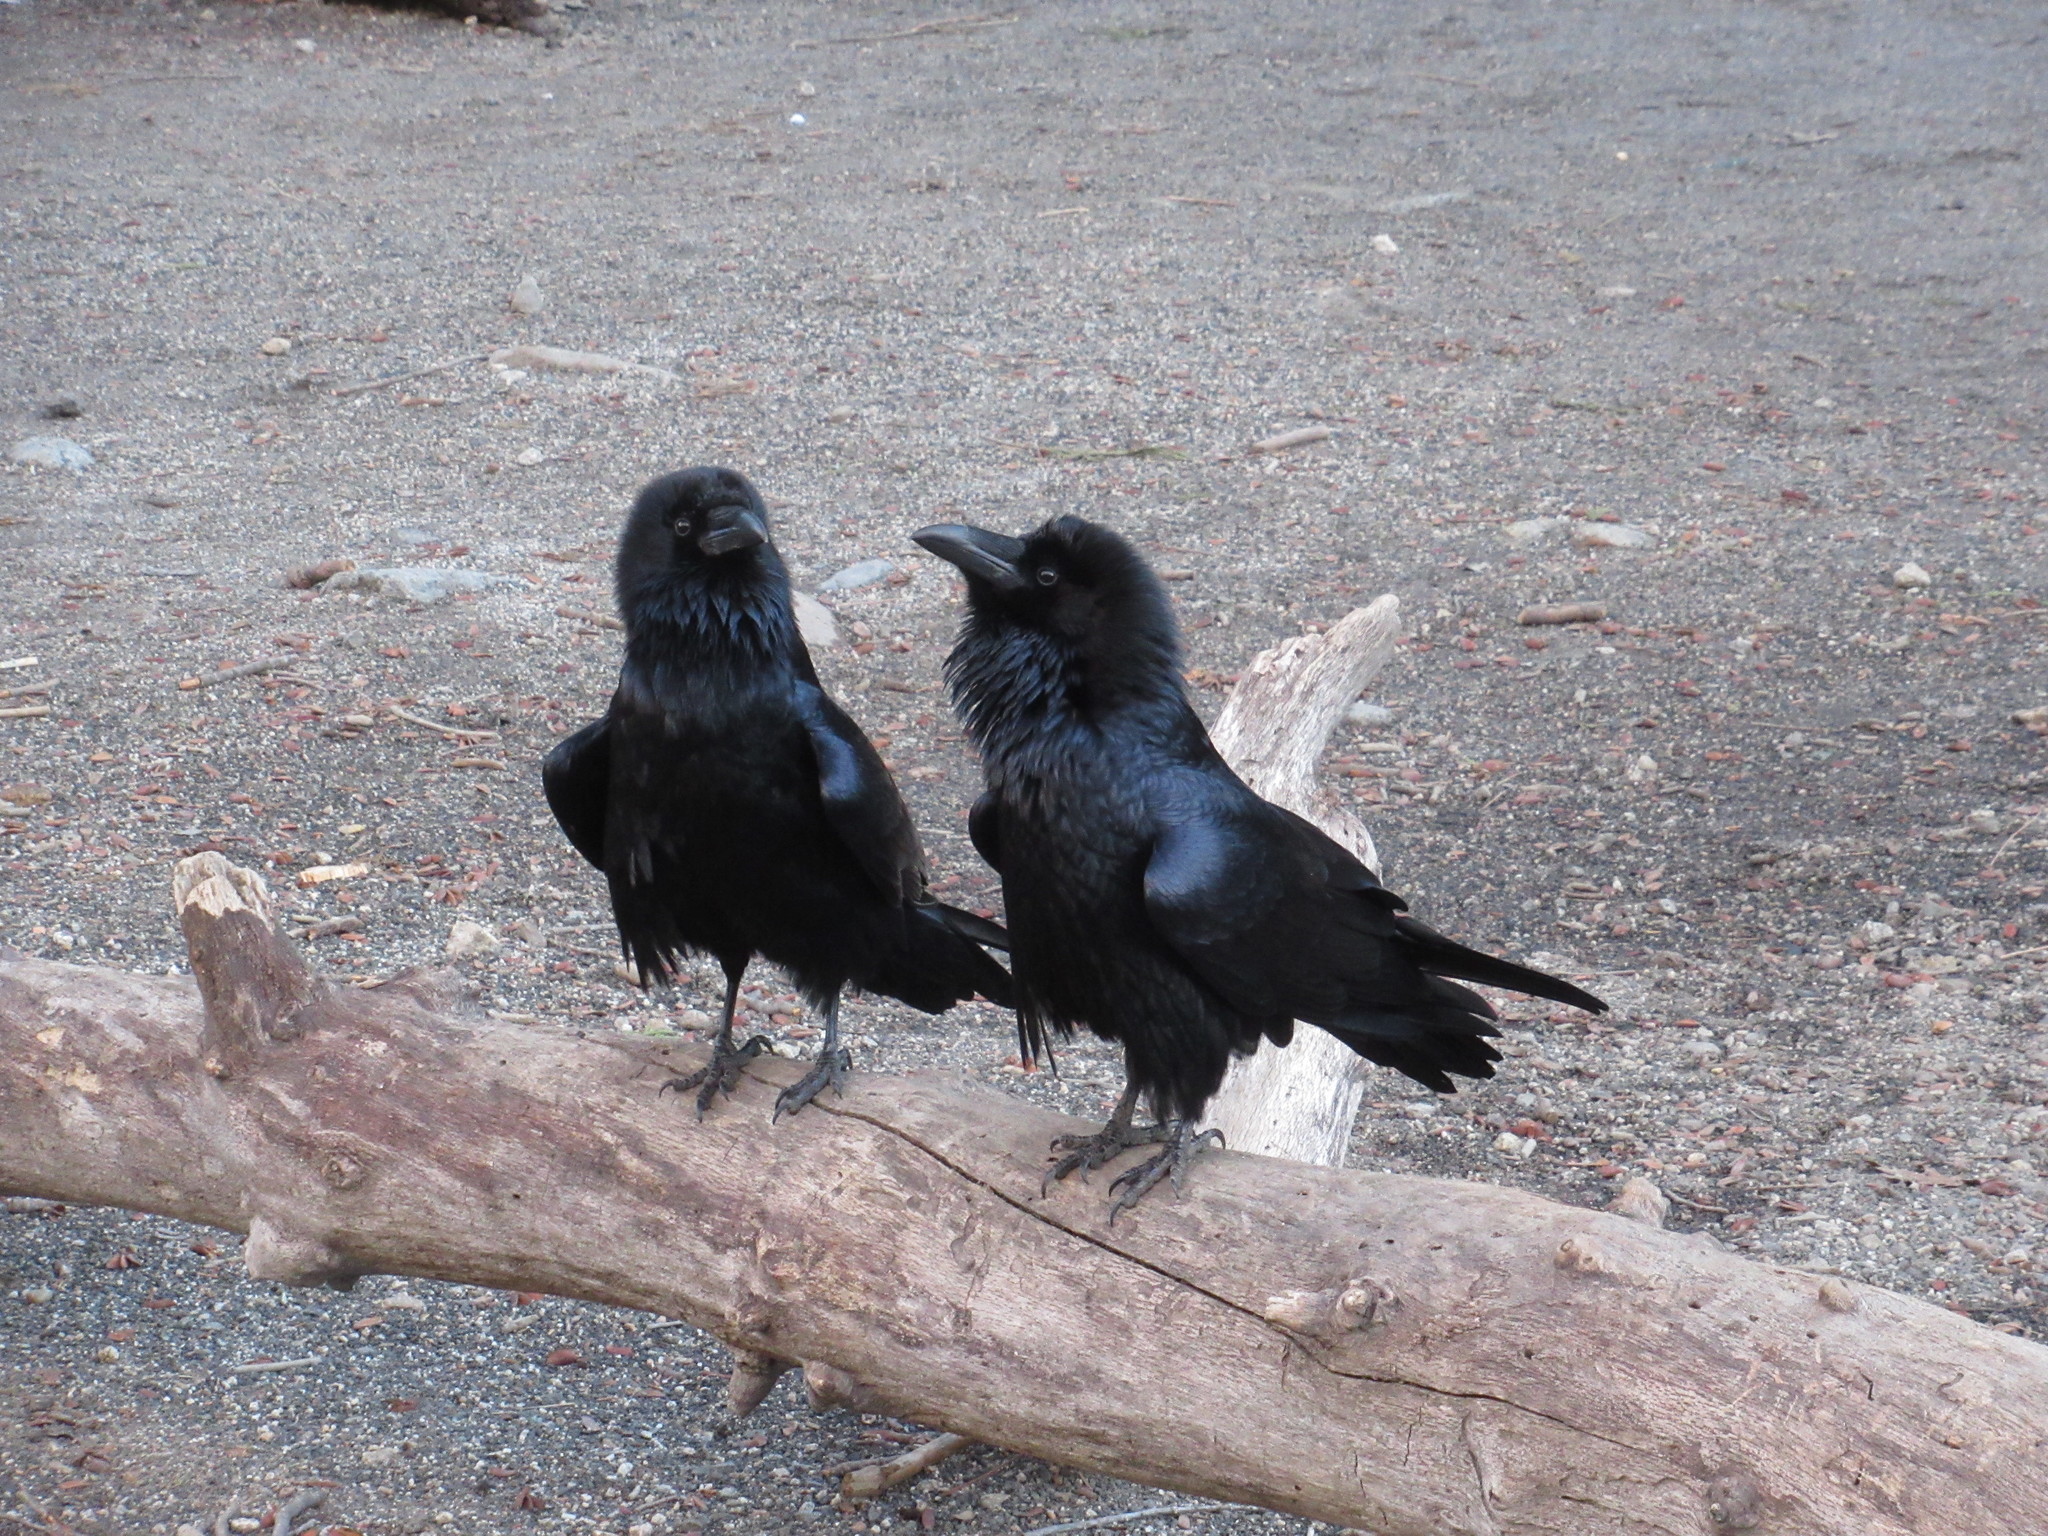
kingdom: Animalia
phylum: Chordata
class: Aves
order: Passeriformes
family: Corvidae
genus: Corvus
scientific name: Corvus corax
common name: Common raven
